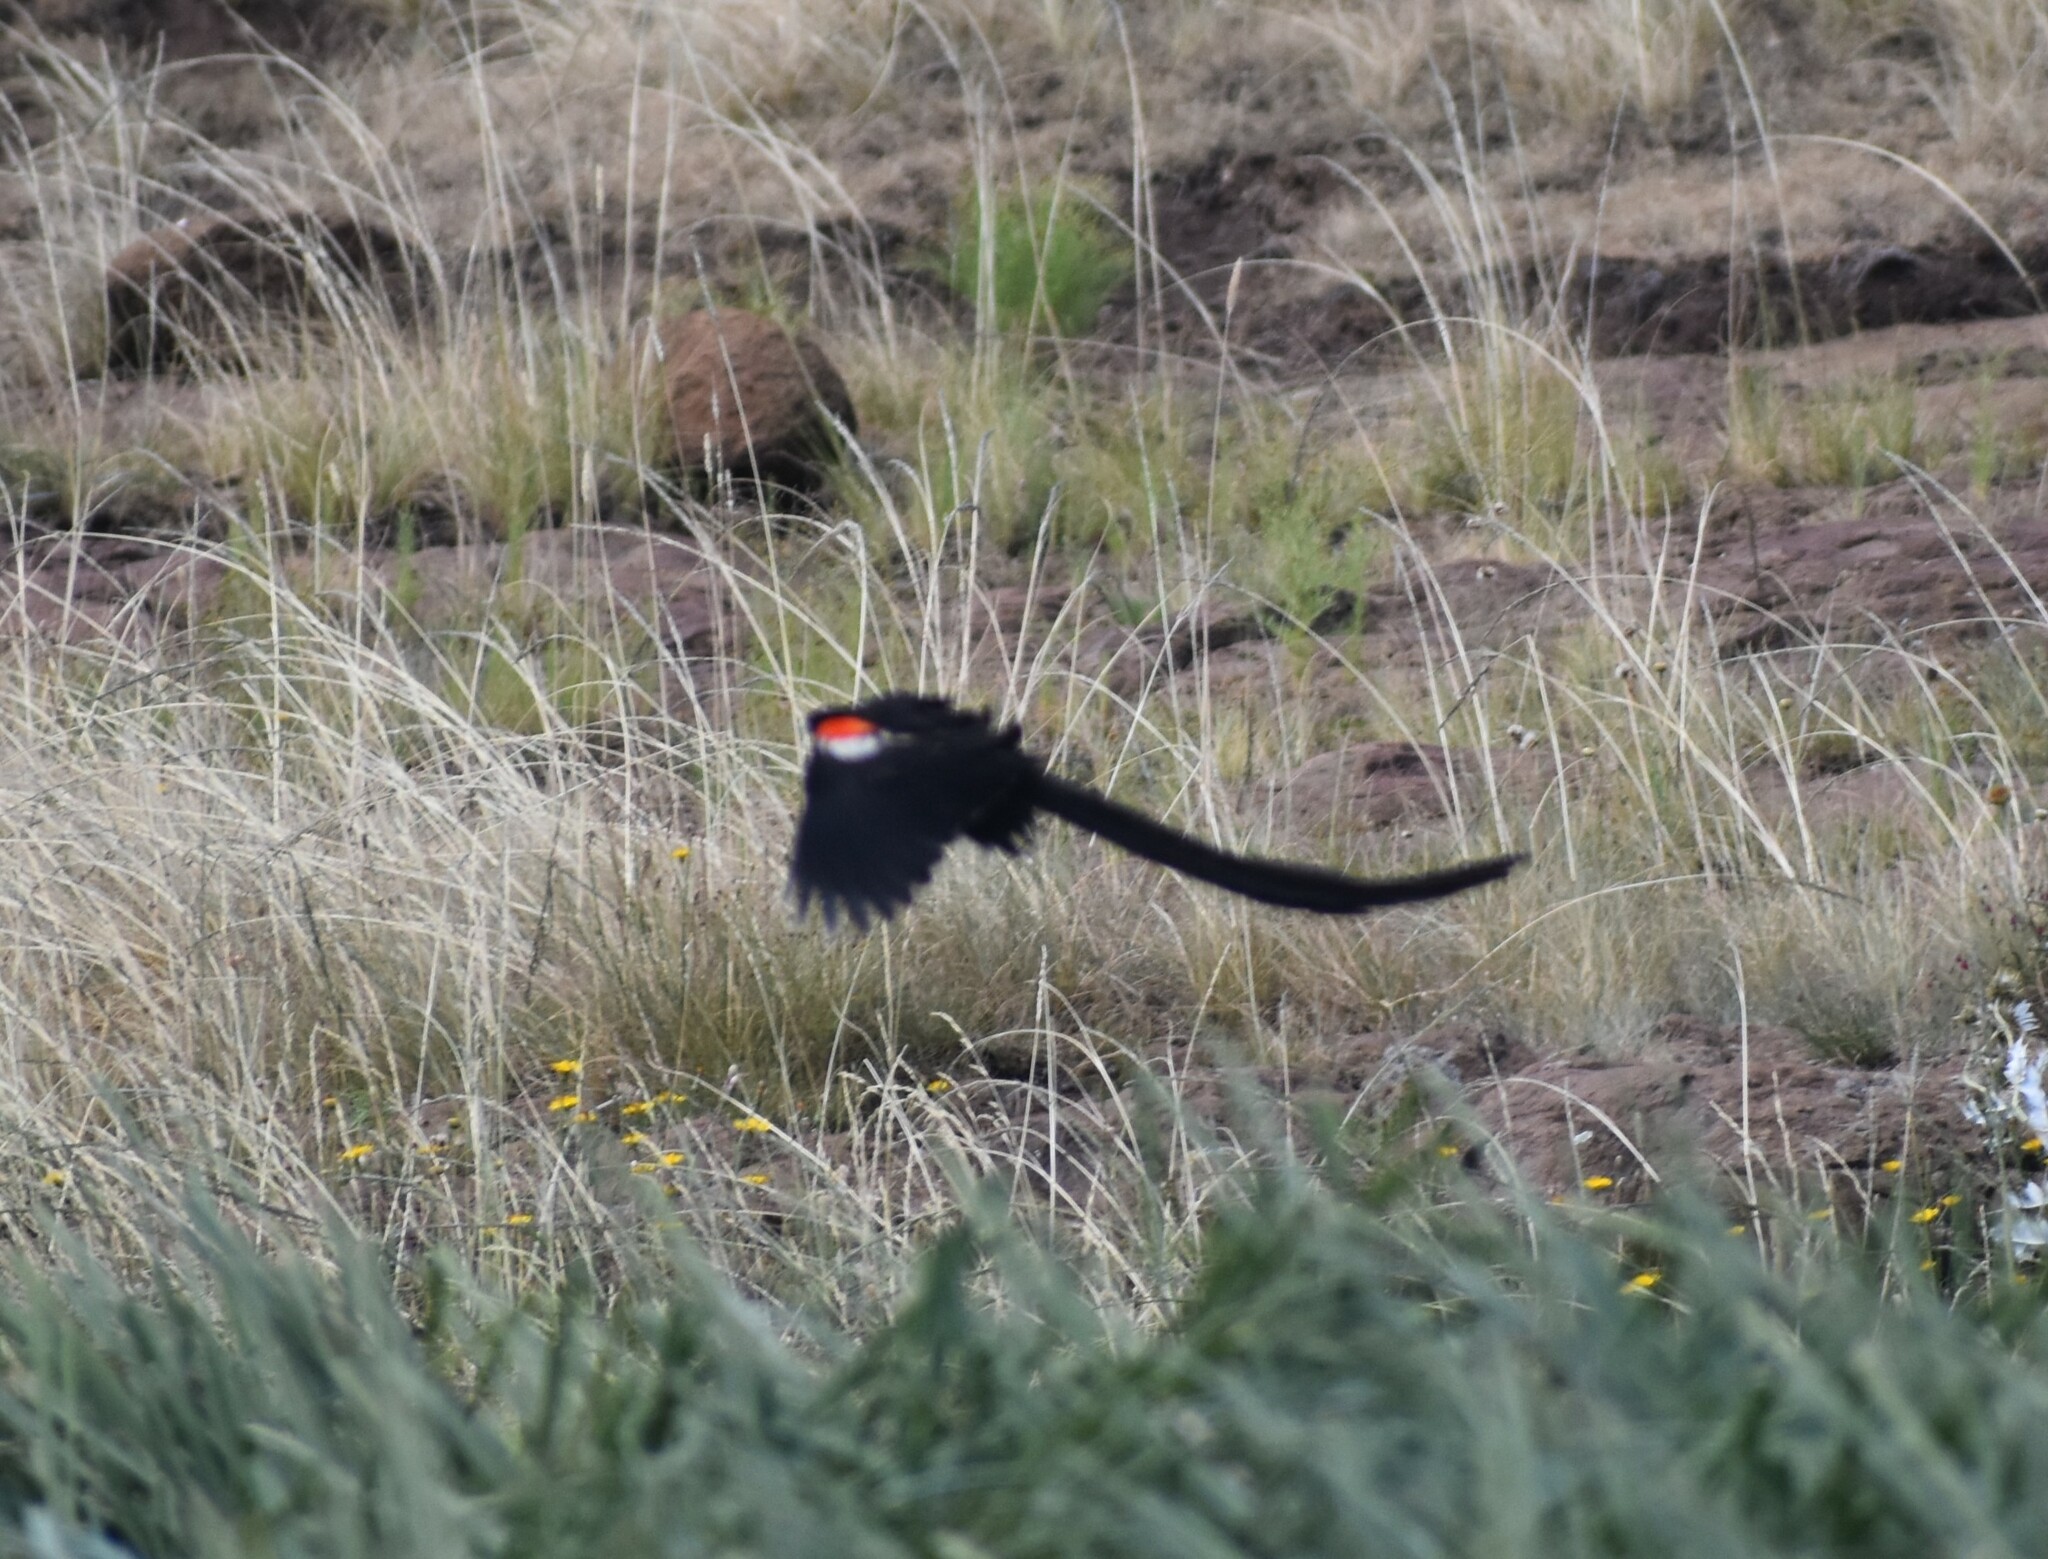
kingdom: Animalia
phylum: Chordata
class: Aves
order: Passeriformes
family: Ploceidae
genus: Euplectes
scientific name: Euplectes progne
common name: Long-tailed widowbird
